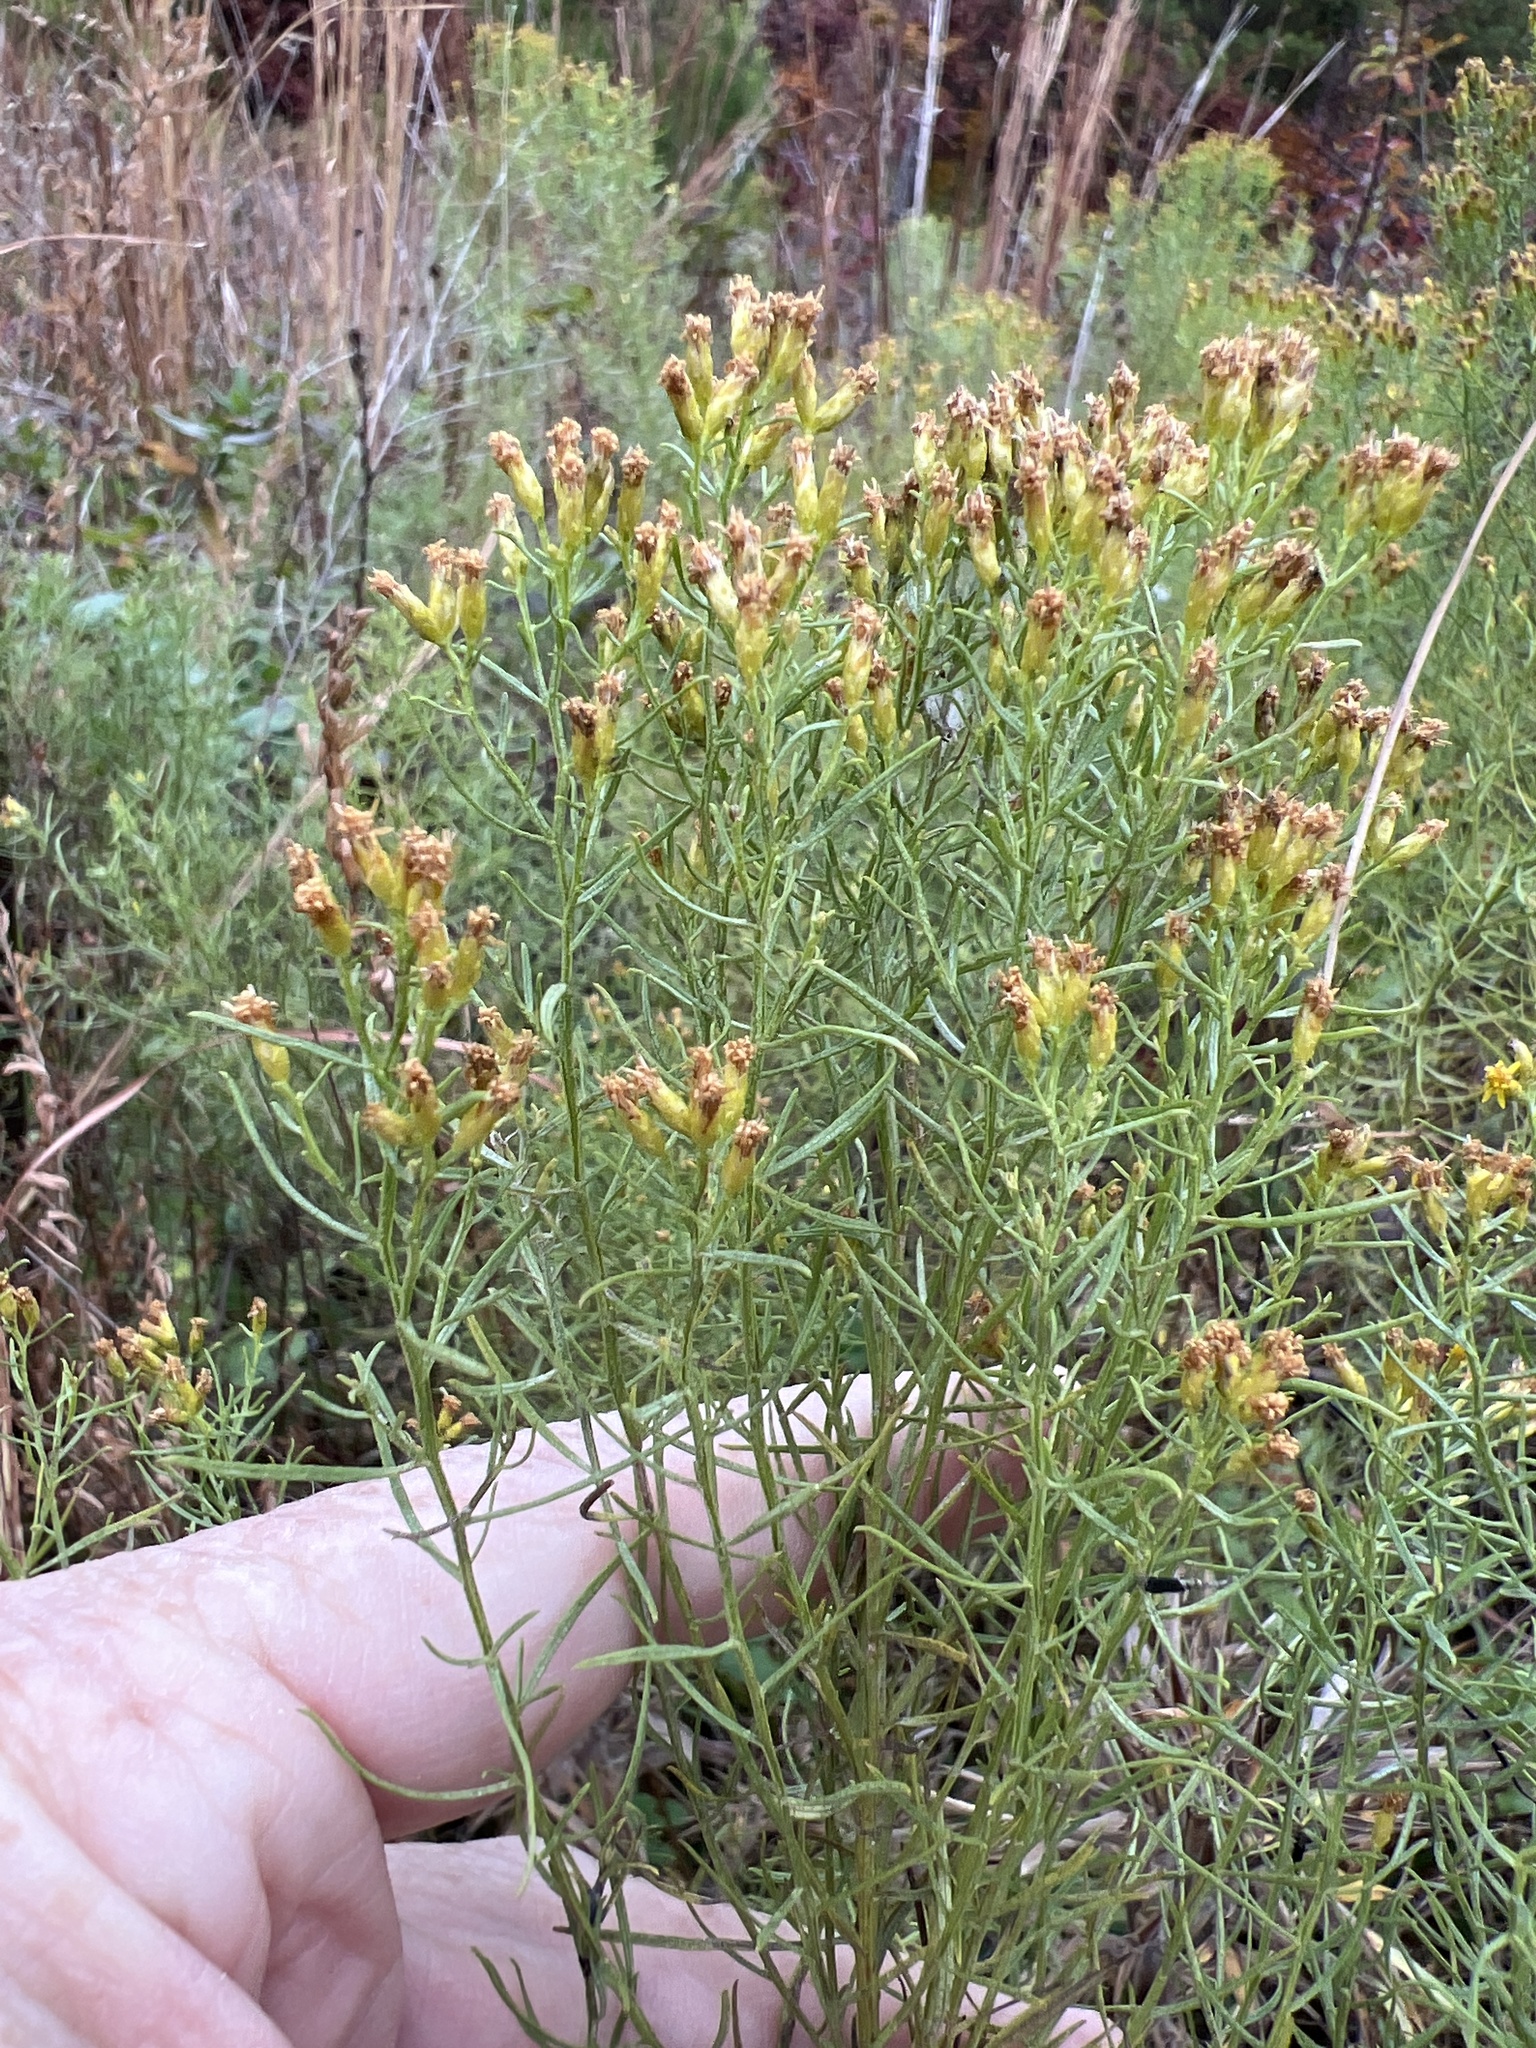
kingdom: Plantae
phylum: Tracheophyta
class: Magnoliopsida
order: Asterales
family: Asteraceae
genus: Euthamia
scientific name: Euthamia caroliniana
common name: Coastal plain goldentop
